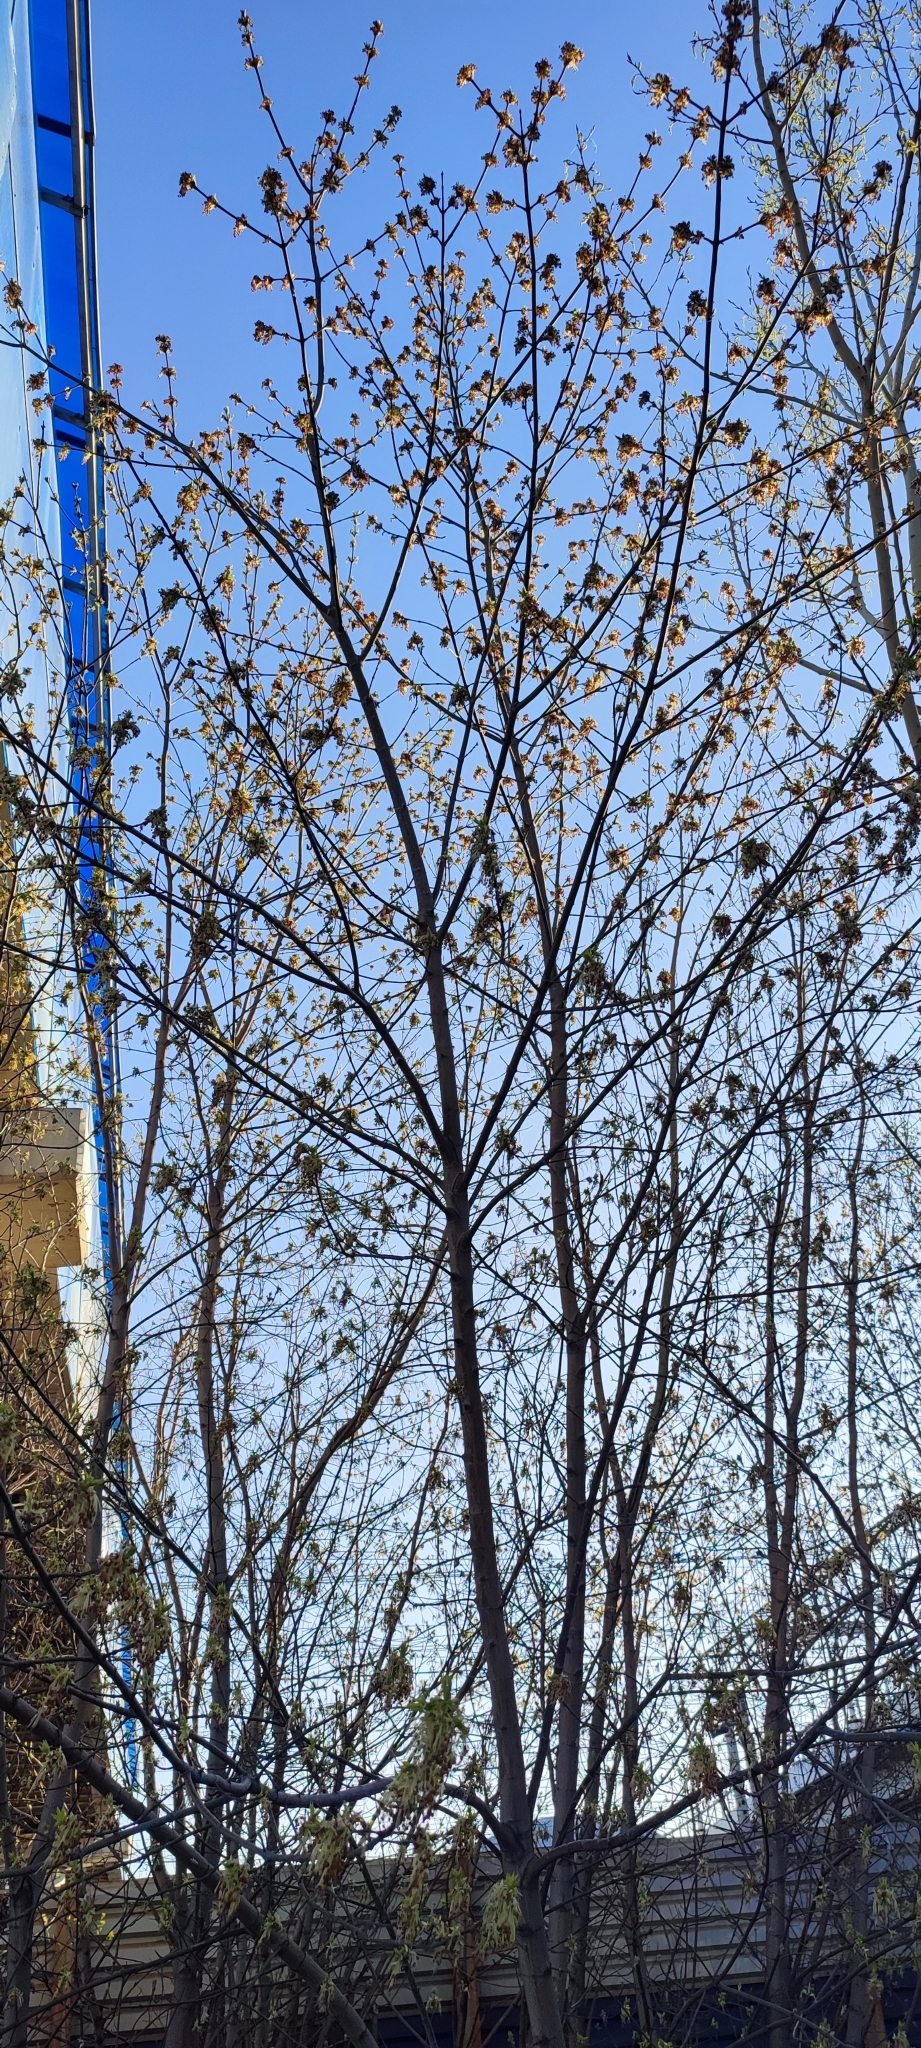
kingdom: Plantae
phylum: Tracheophyta
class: Magnoliopsida
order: Sapindales
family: Sapindaceae
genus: Acer
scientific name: Acer negundo
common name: Ashleaf maple
